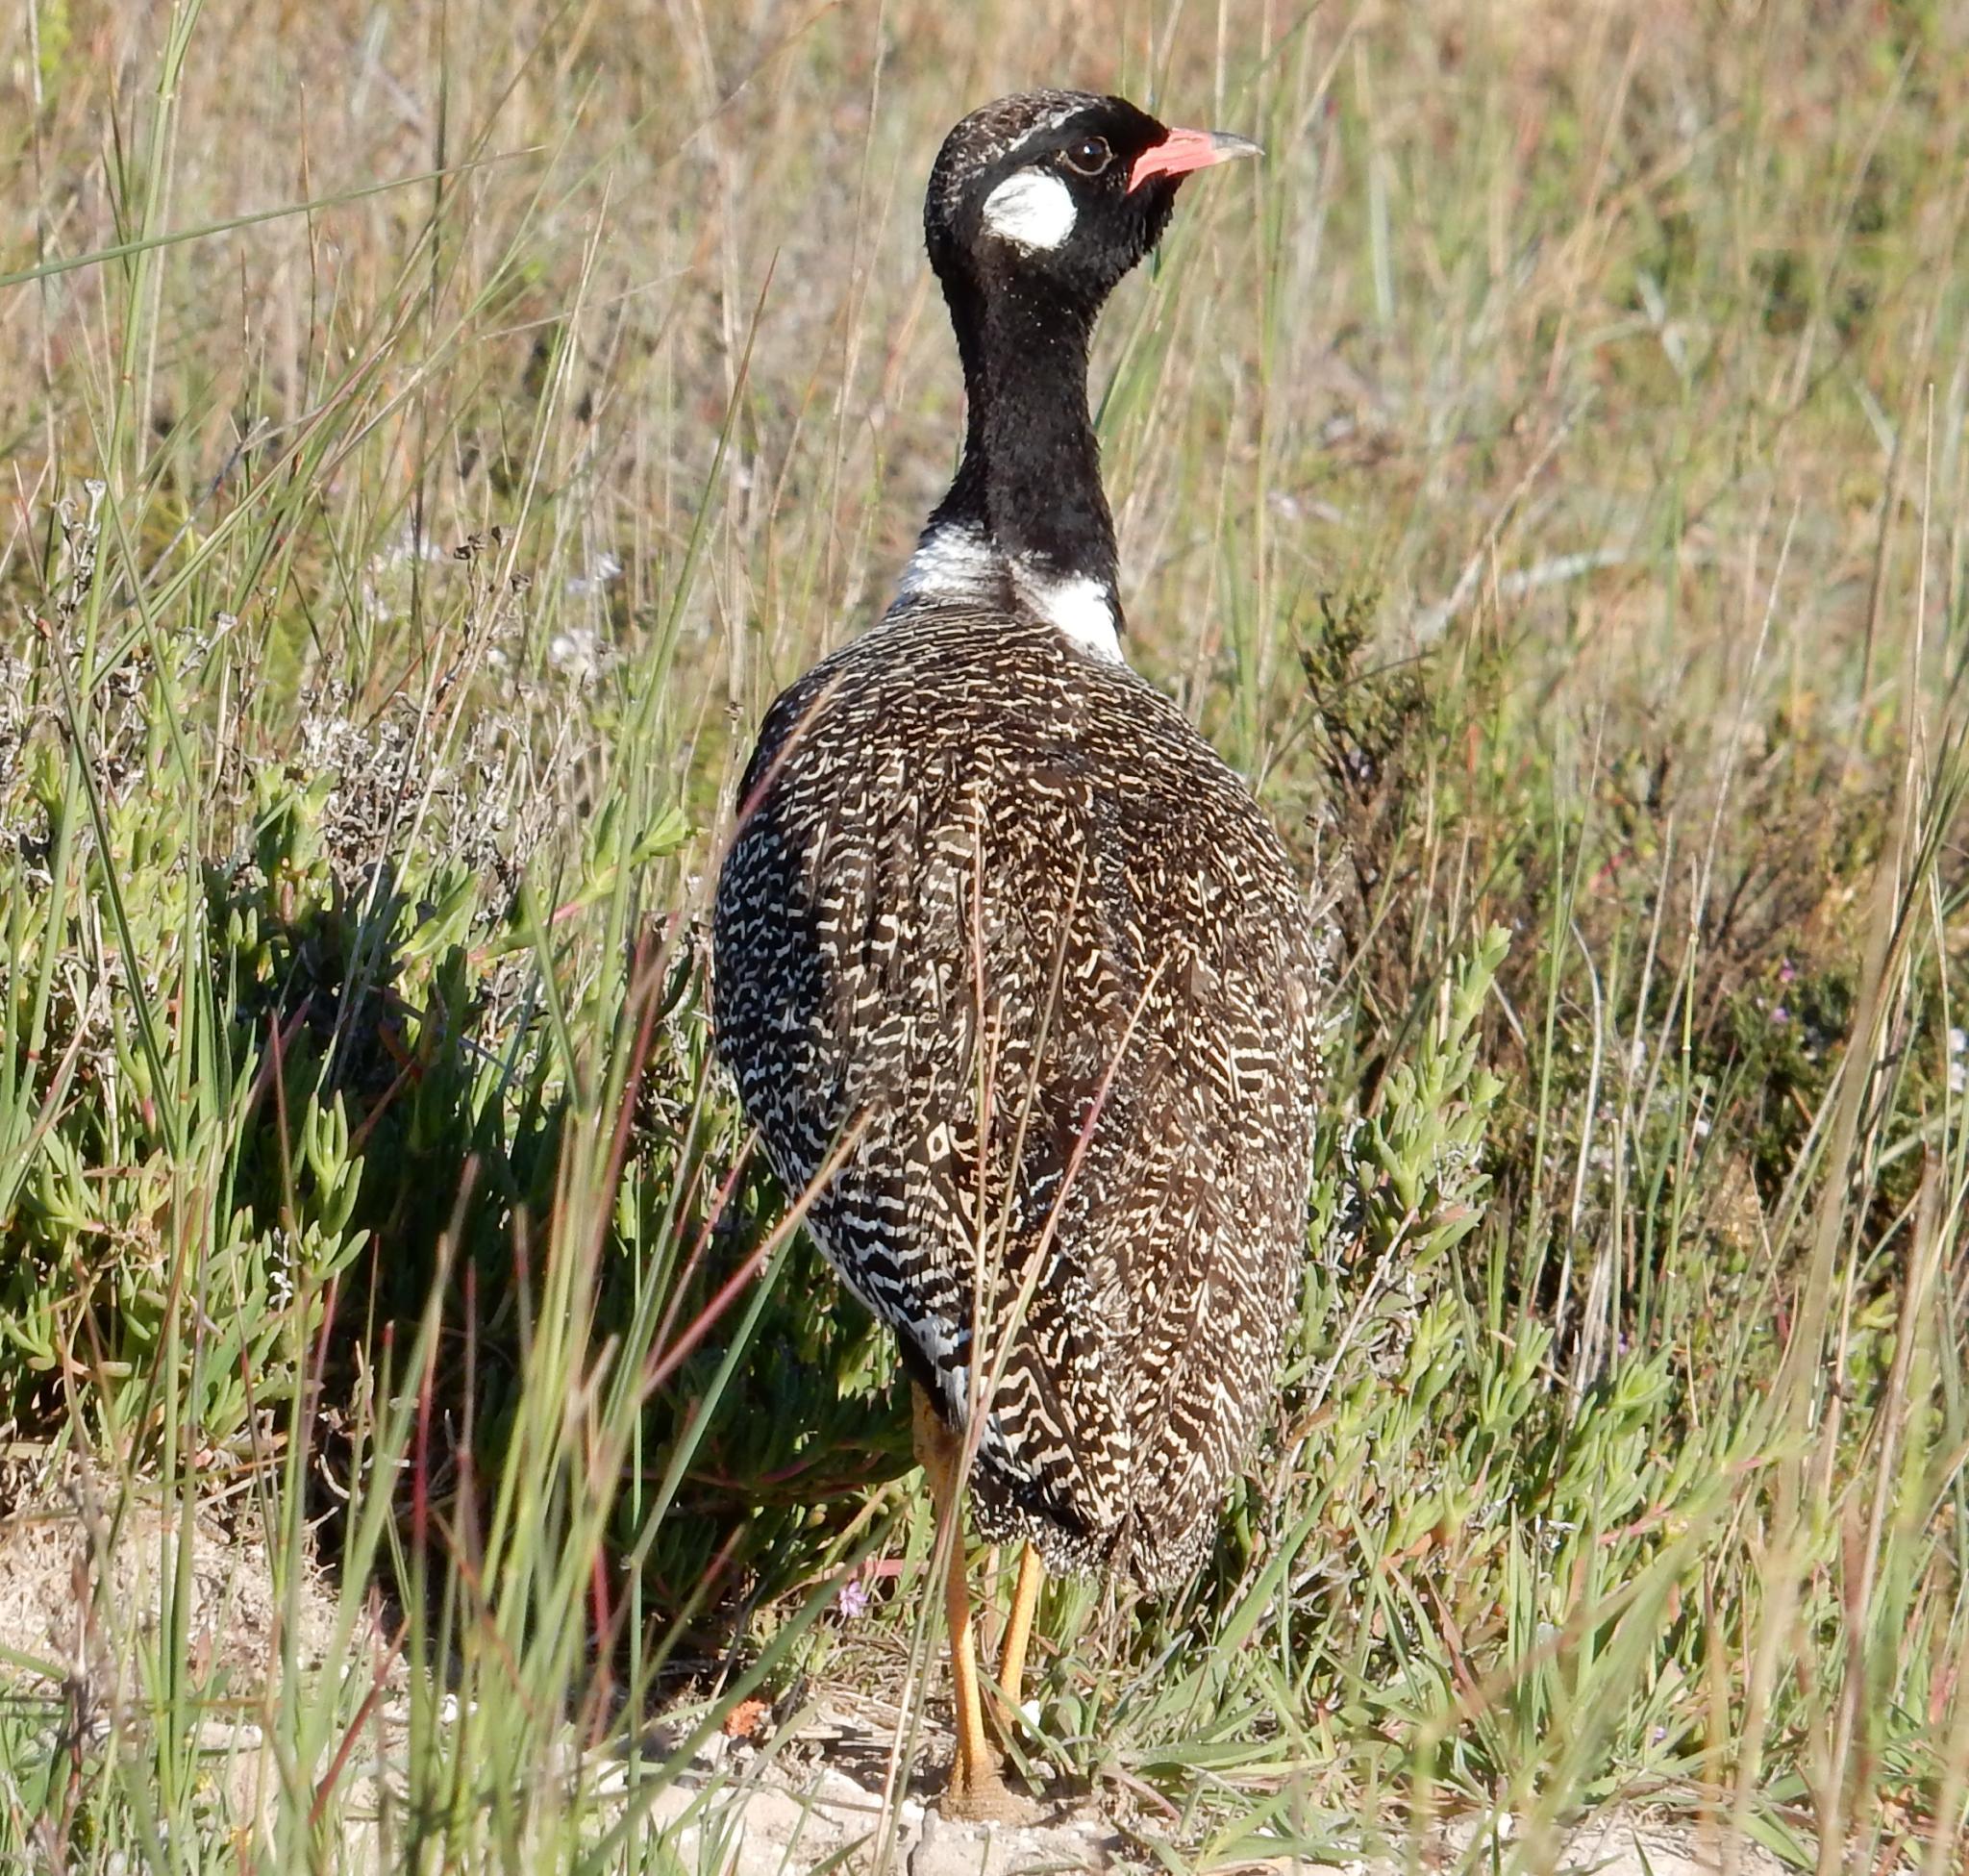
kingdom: Animalia
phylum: Chordata
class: Aves
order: Otidiformes
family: Otididae
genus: Afrotis
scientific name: Afrotis afra
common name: Southern black korhaan
